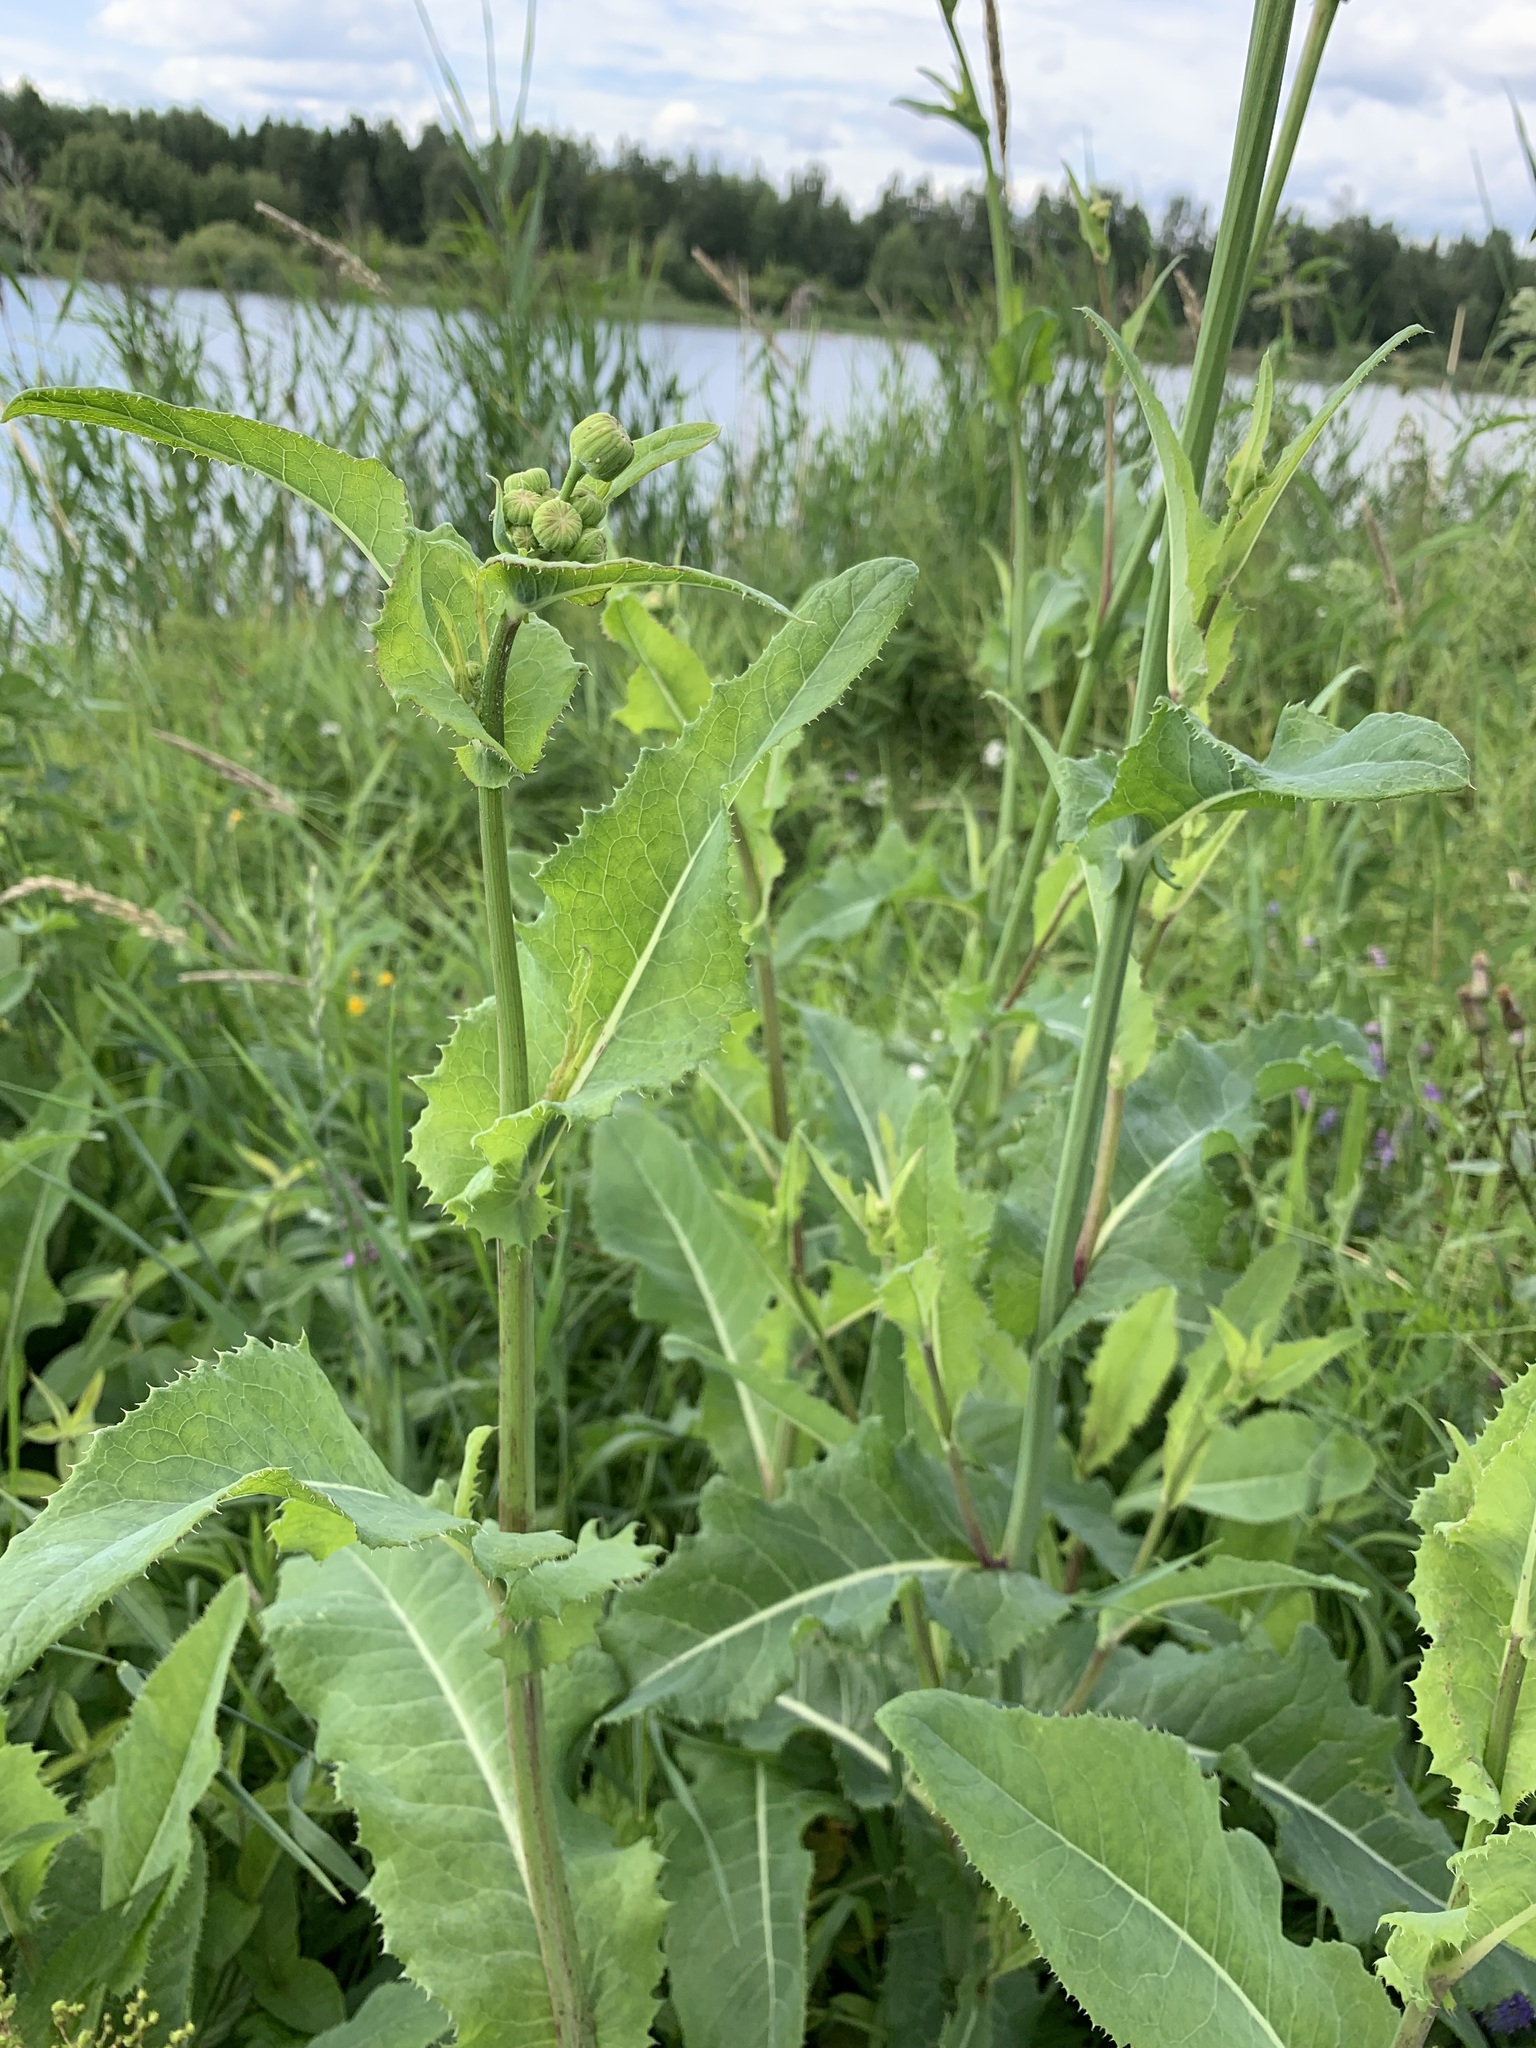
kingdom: Plantae
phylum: Tracheophyta
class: Magnoliopsida
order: Asterales
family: Asteraceae
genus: Sonchus
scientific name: Sonchus arvensis
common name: Perennial sow-thistle
